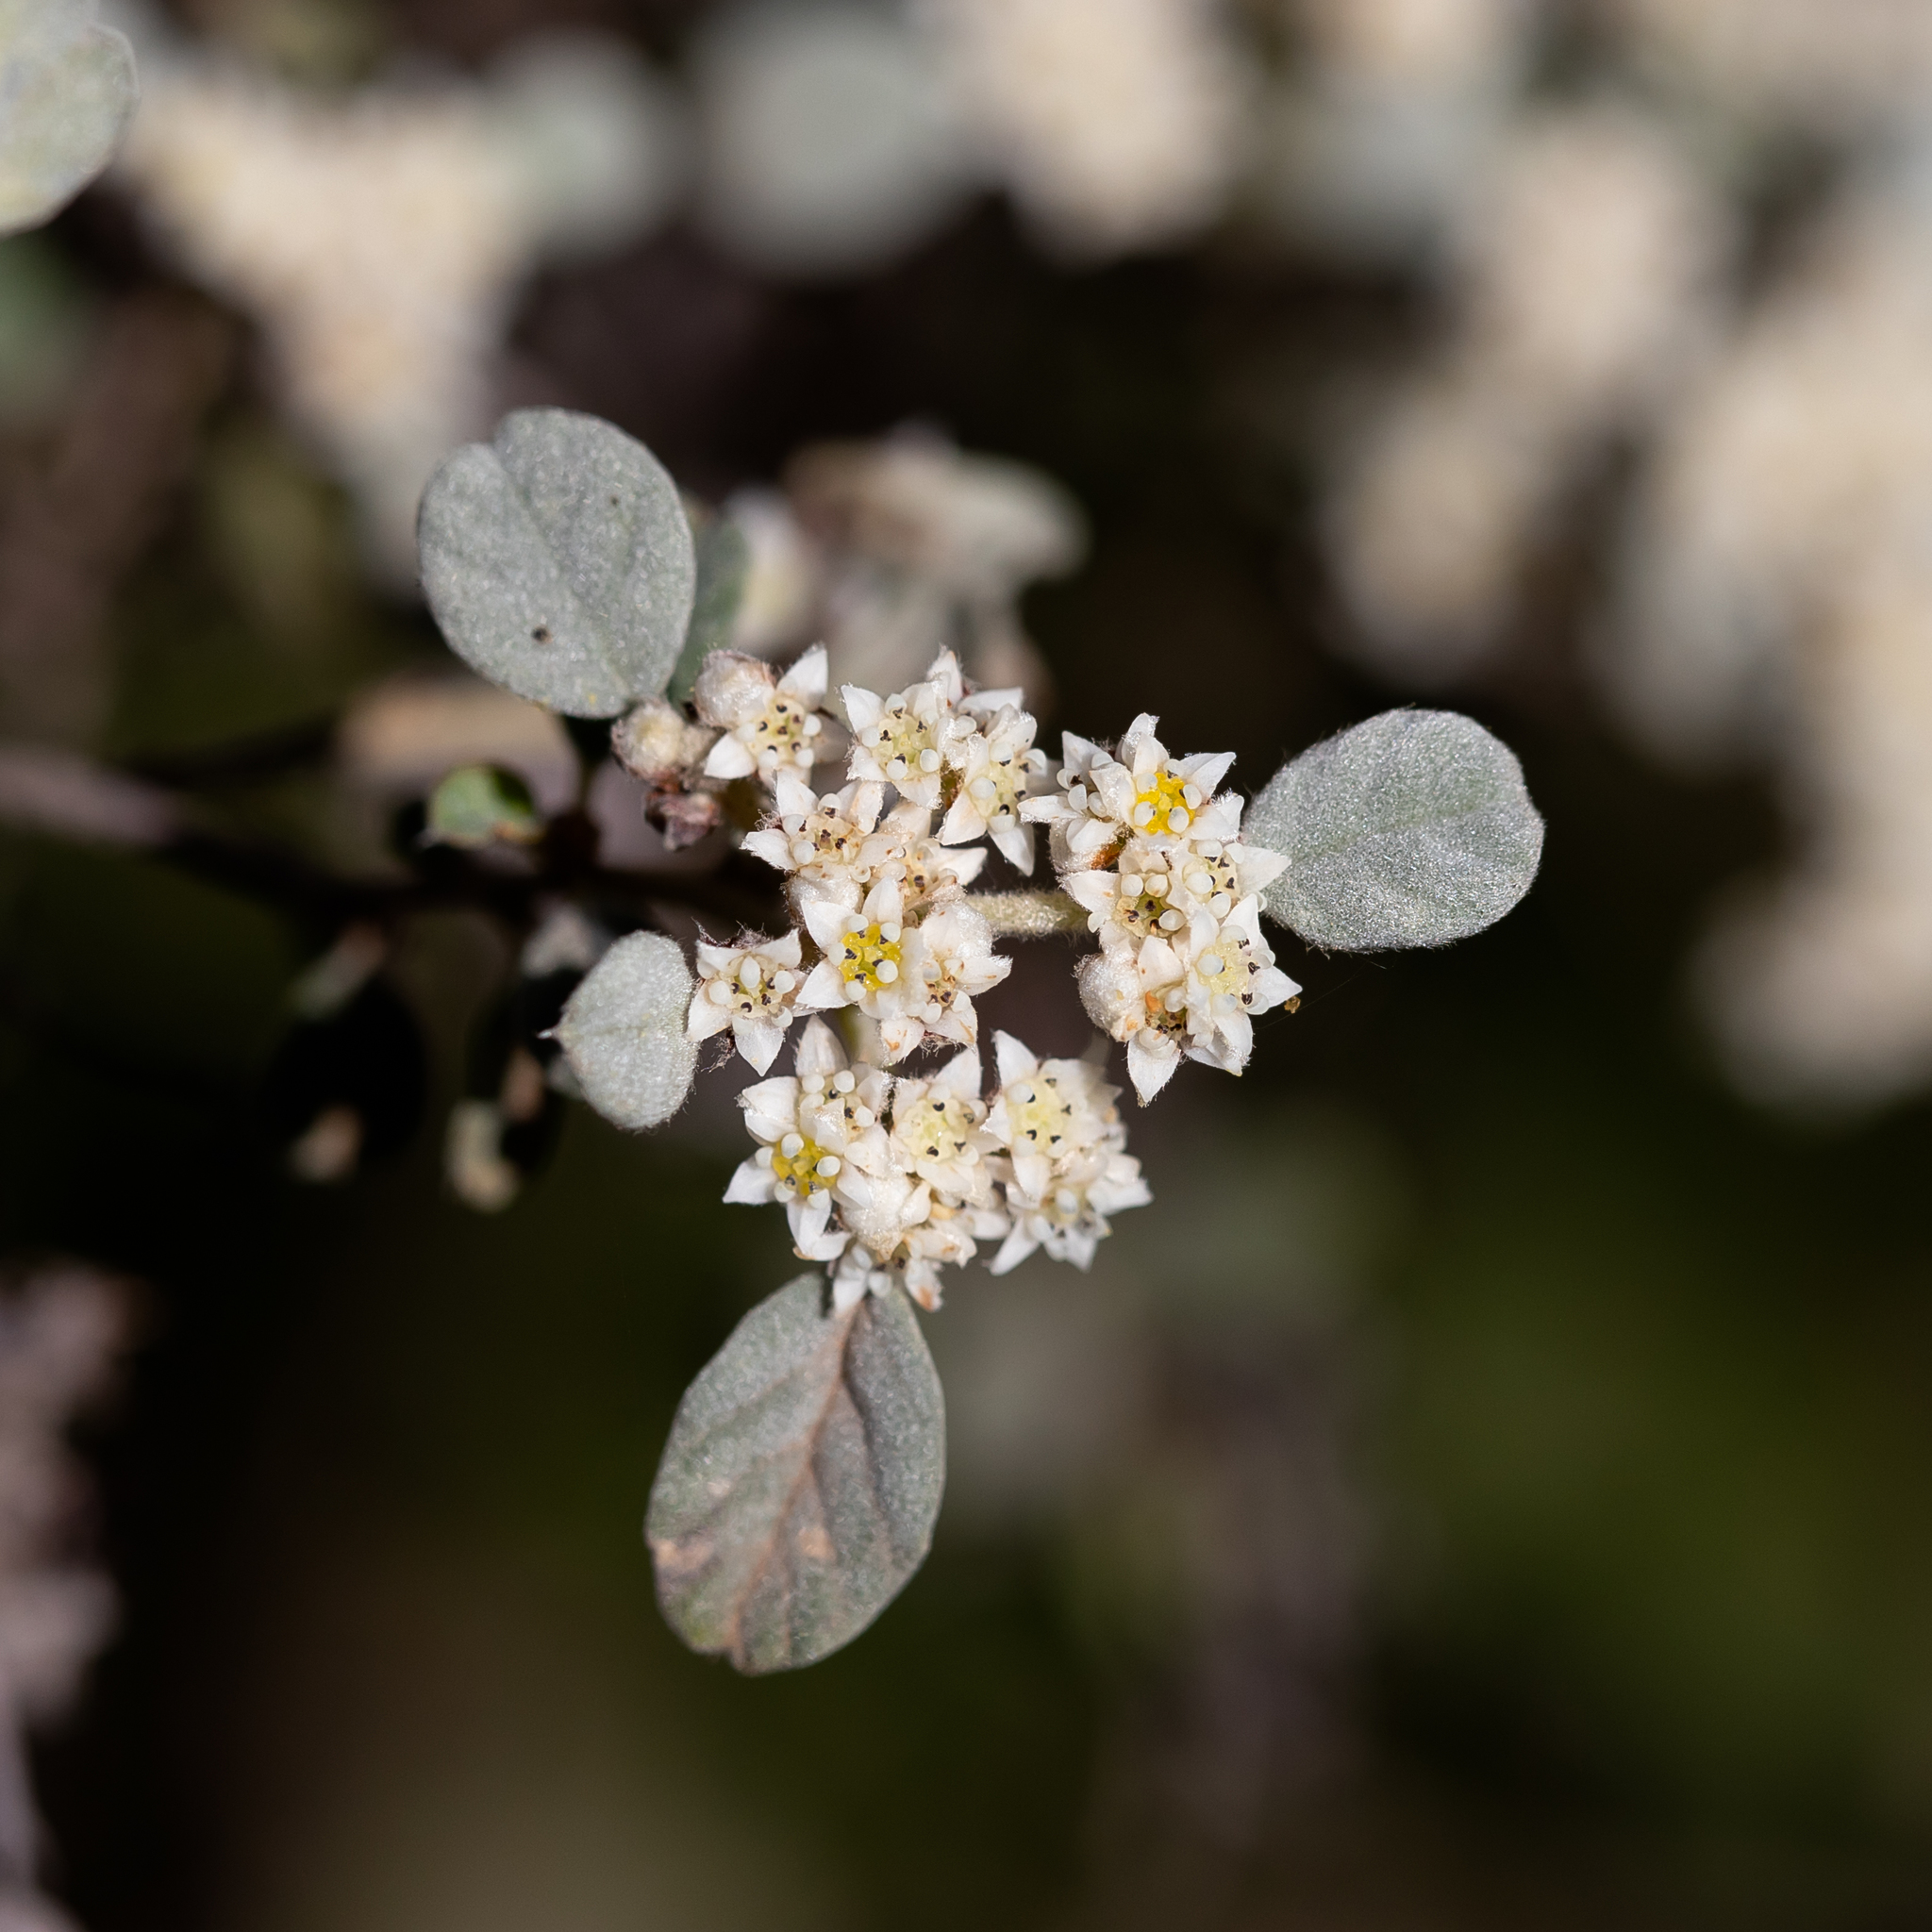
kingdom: Plantae
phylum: Tracheophyta
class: Magnoliopsida
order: Rosales
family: Rhamnaceae
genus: Spyridium
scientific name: Spyridium parvifolium
